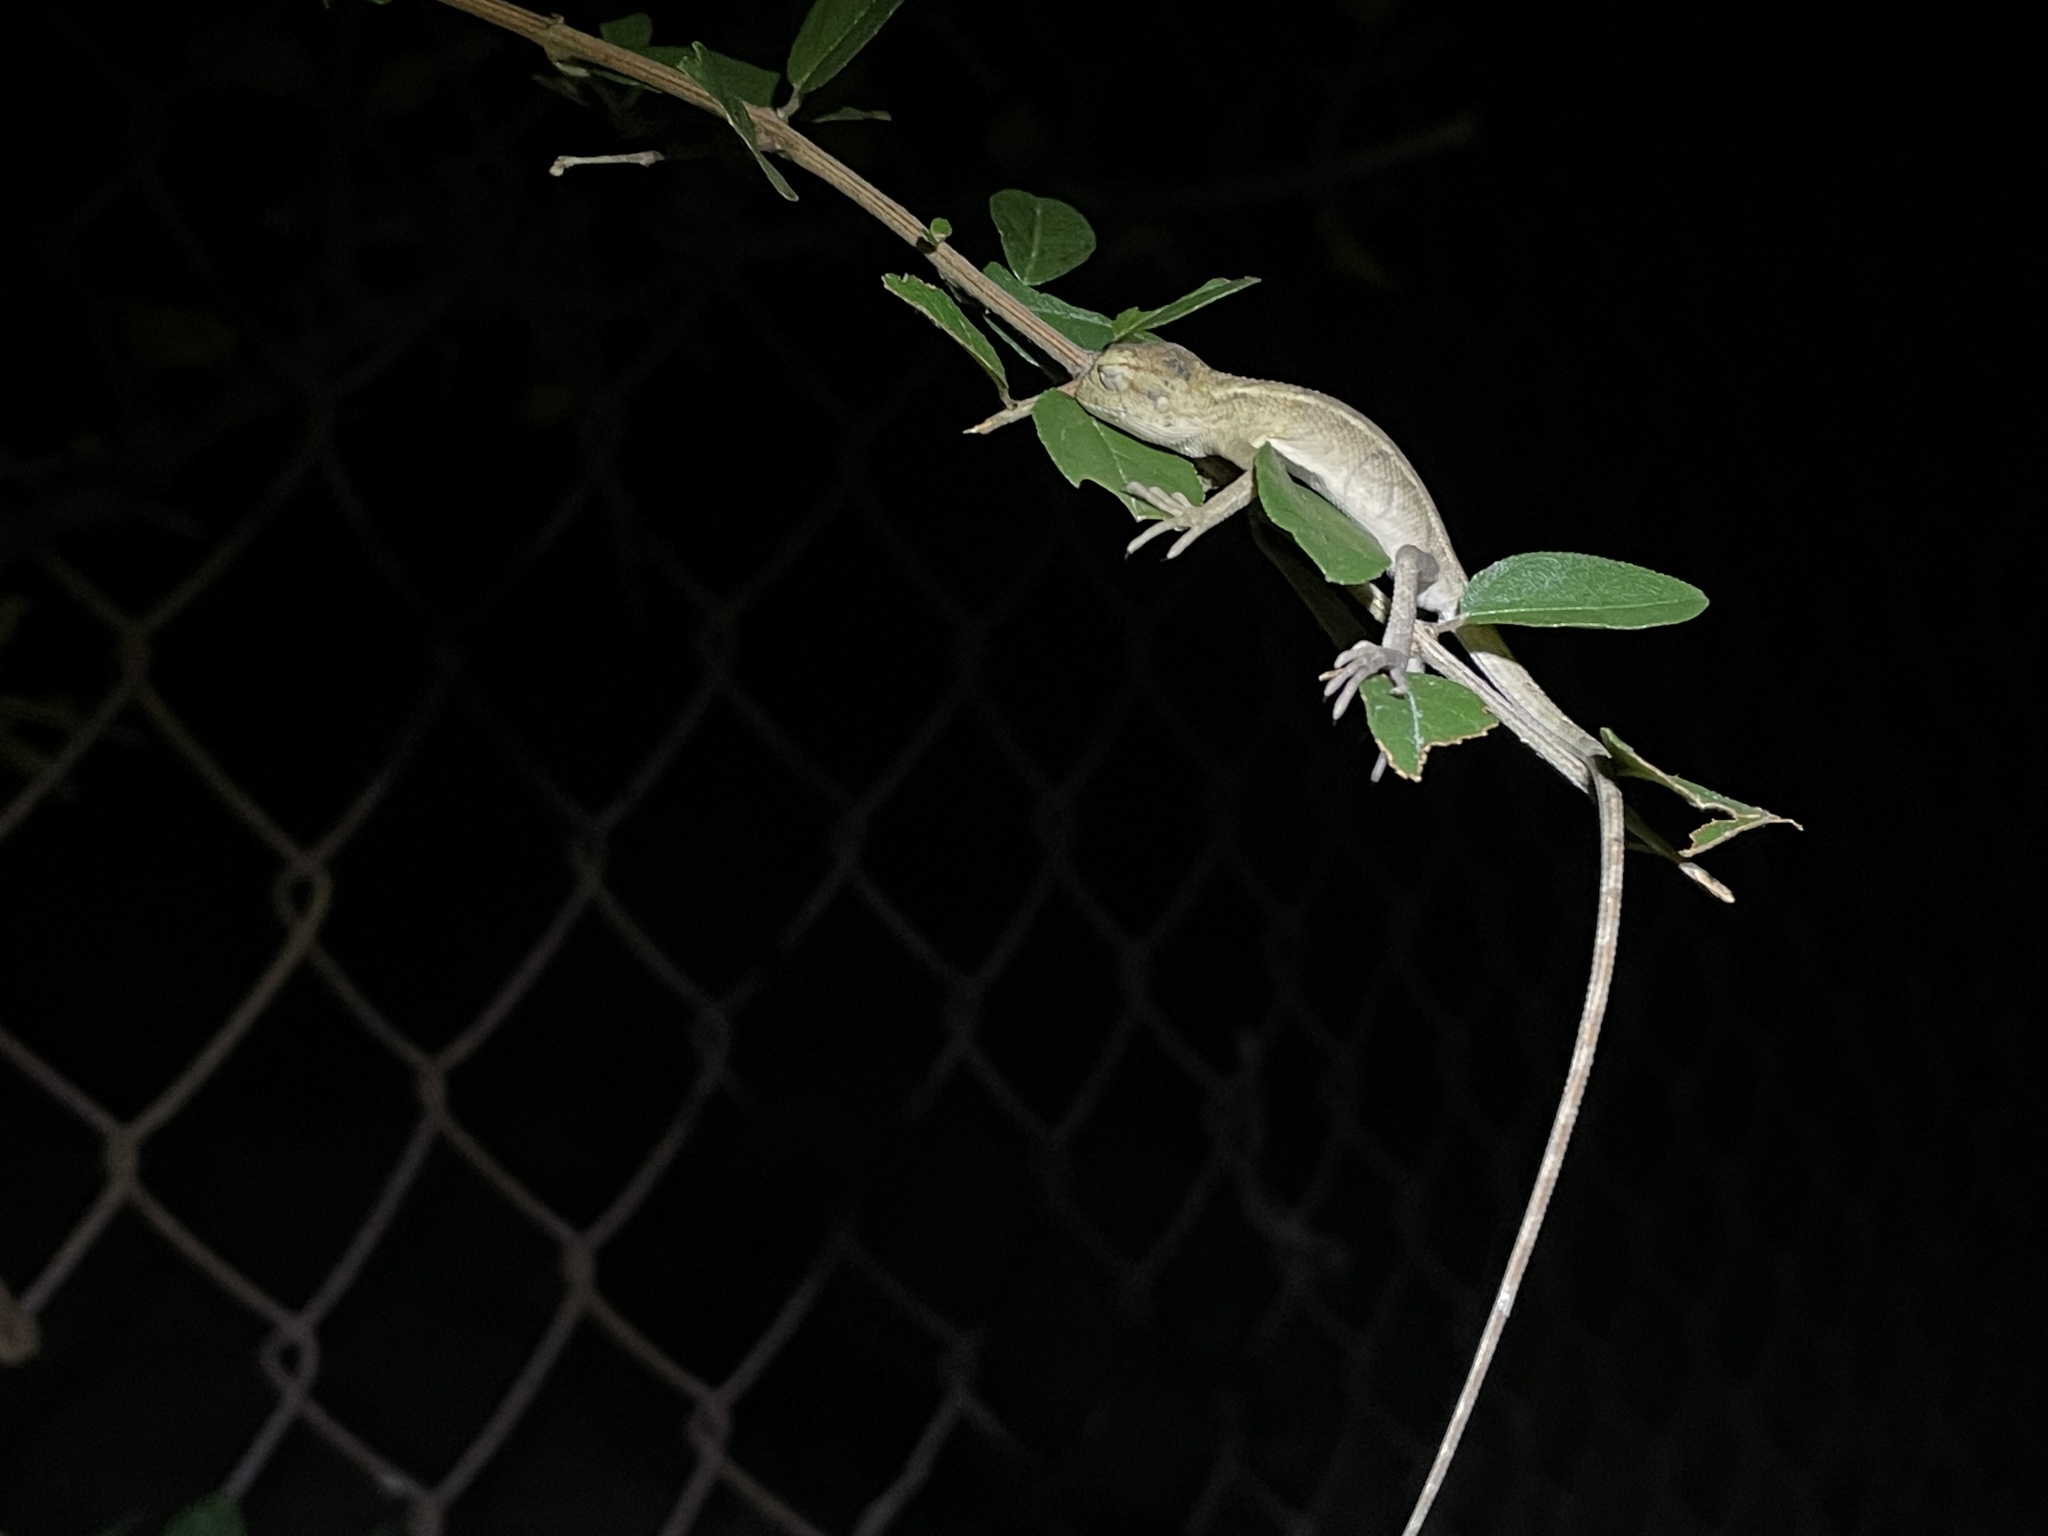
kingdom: Animalia
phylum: Chordata
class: Squamata
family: Agamidae
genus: Calotes
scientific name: Calotes versicolor
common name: Oriental garden lizard
